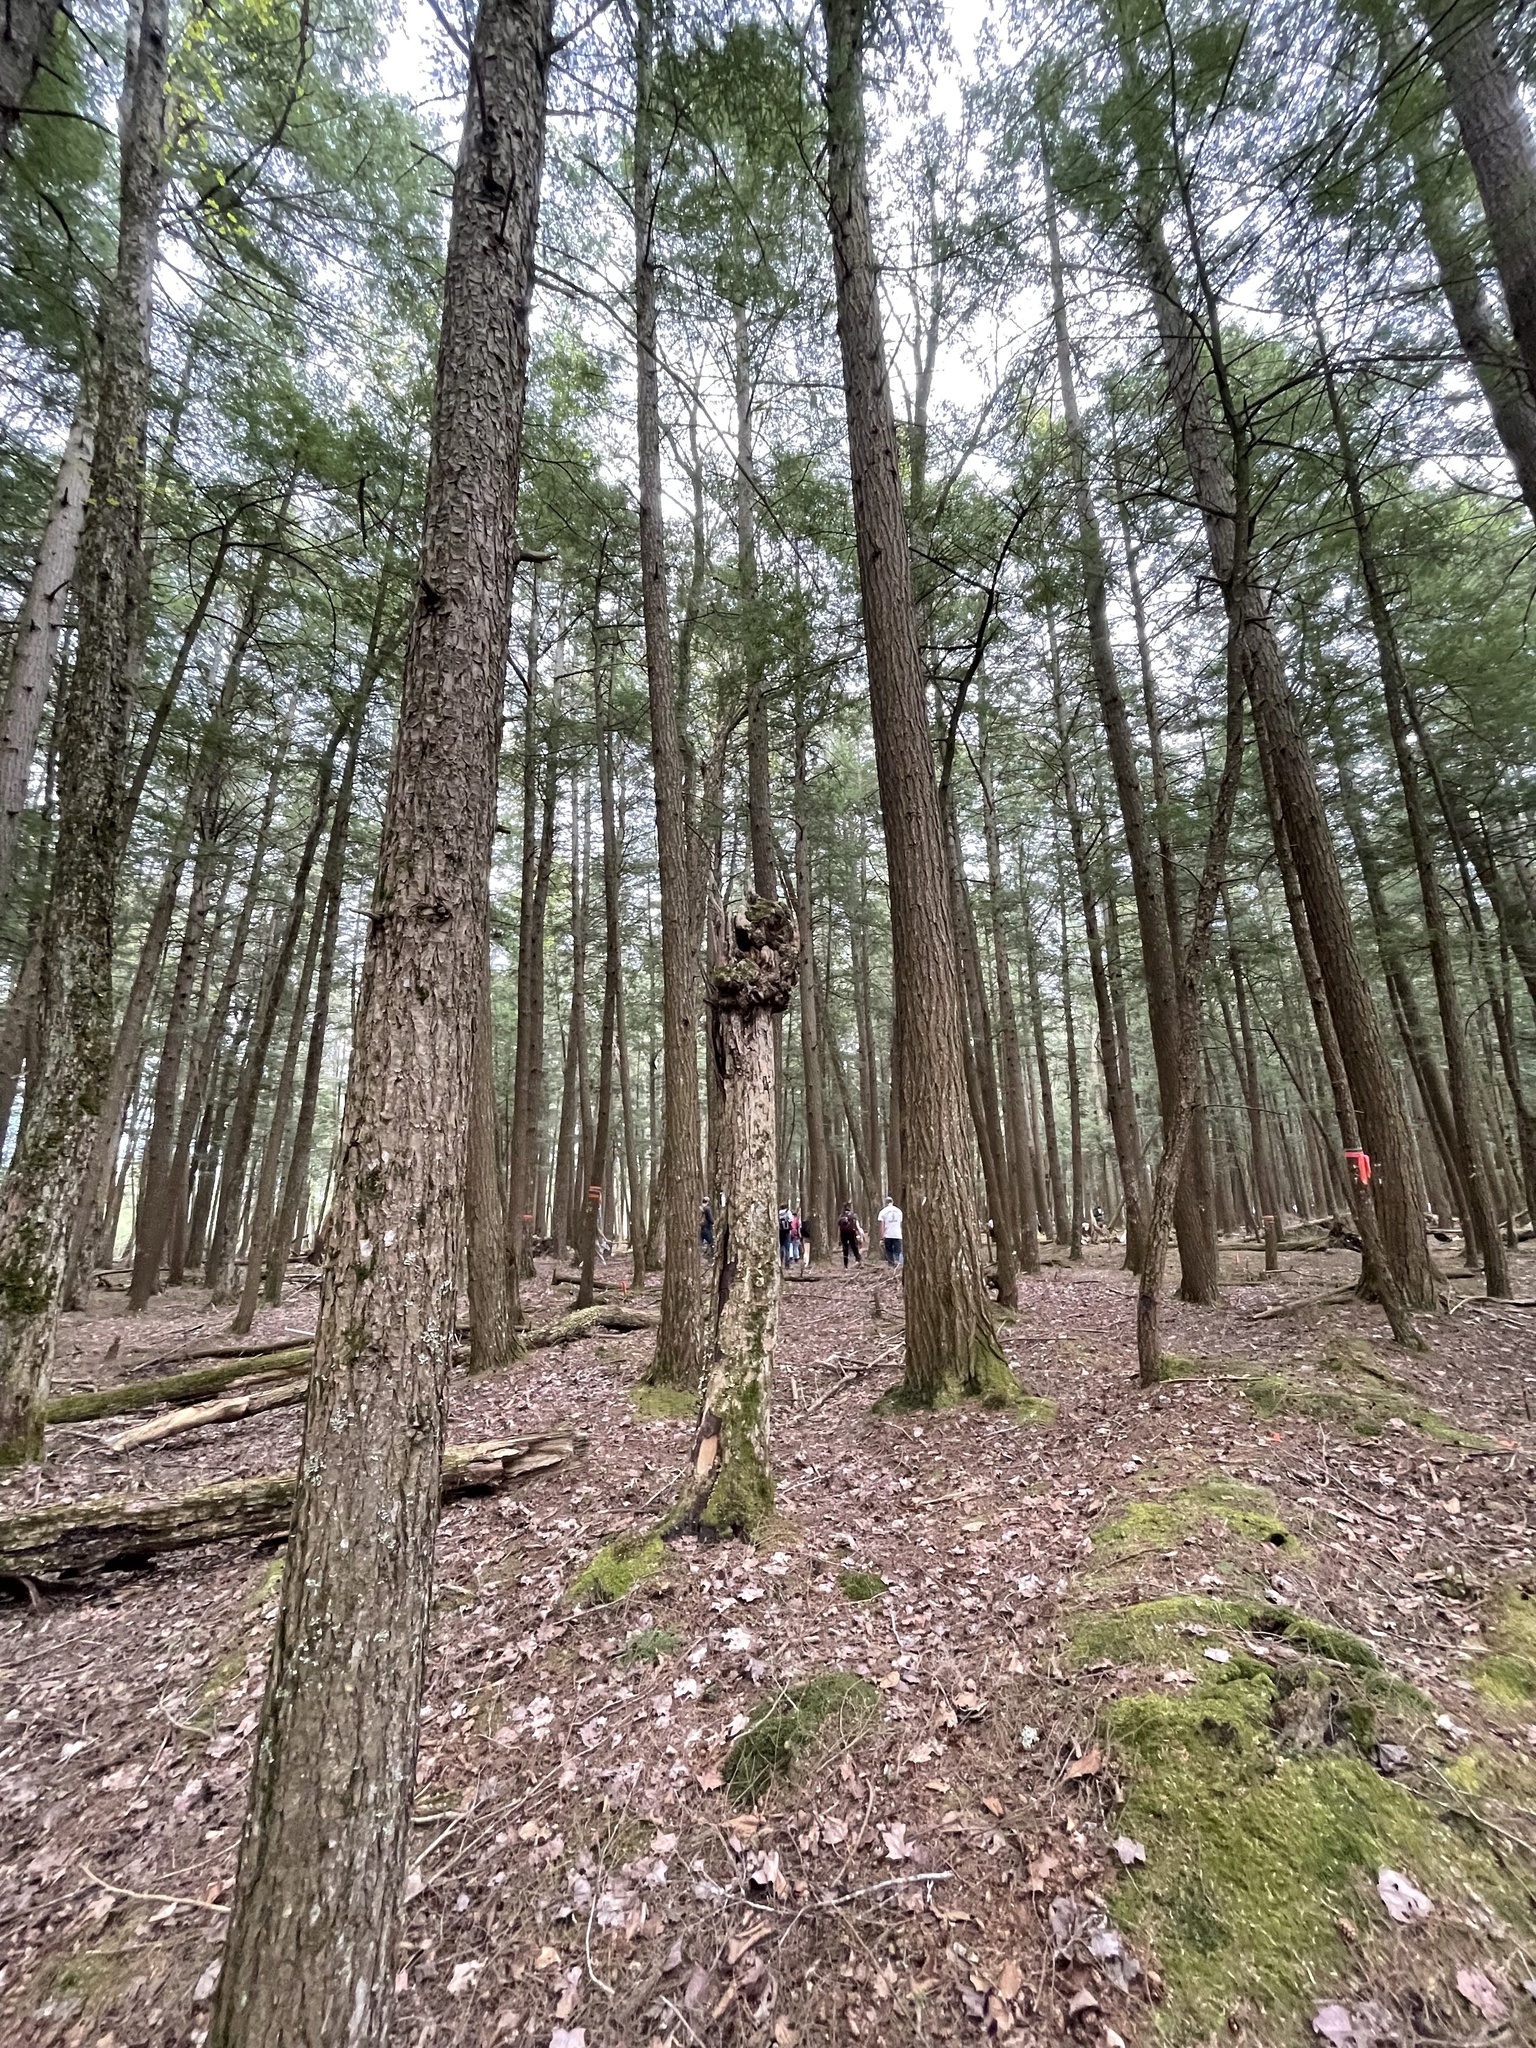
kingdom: Plantae
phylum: Tracheophyta
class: Pinopsida
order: Pinales
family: Pinaceae
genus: Tsuga
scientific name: Tsuga canadensis
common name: Eastern hemlock
